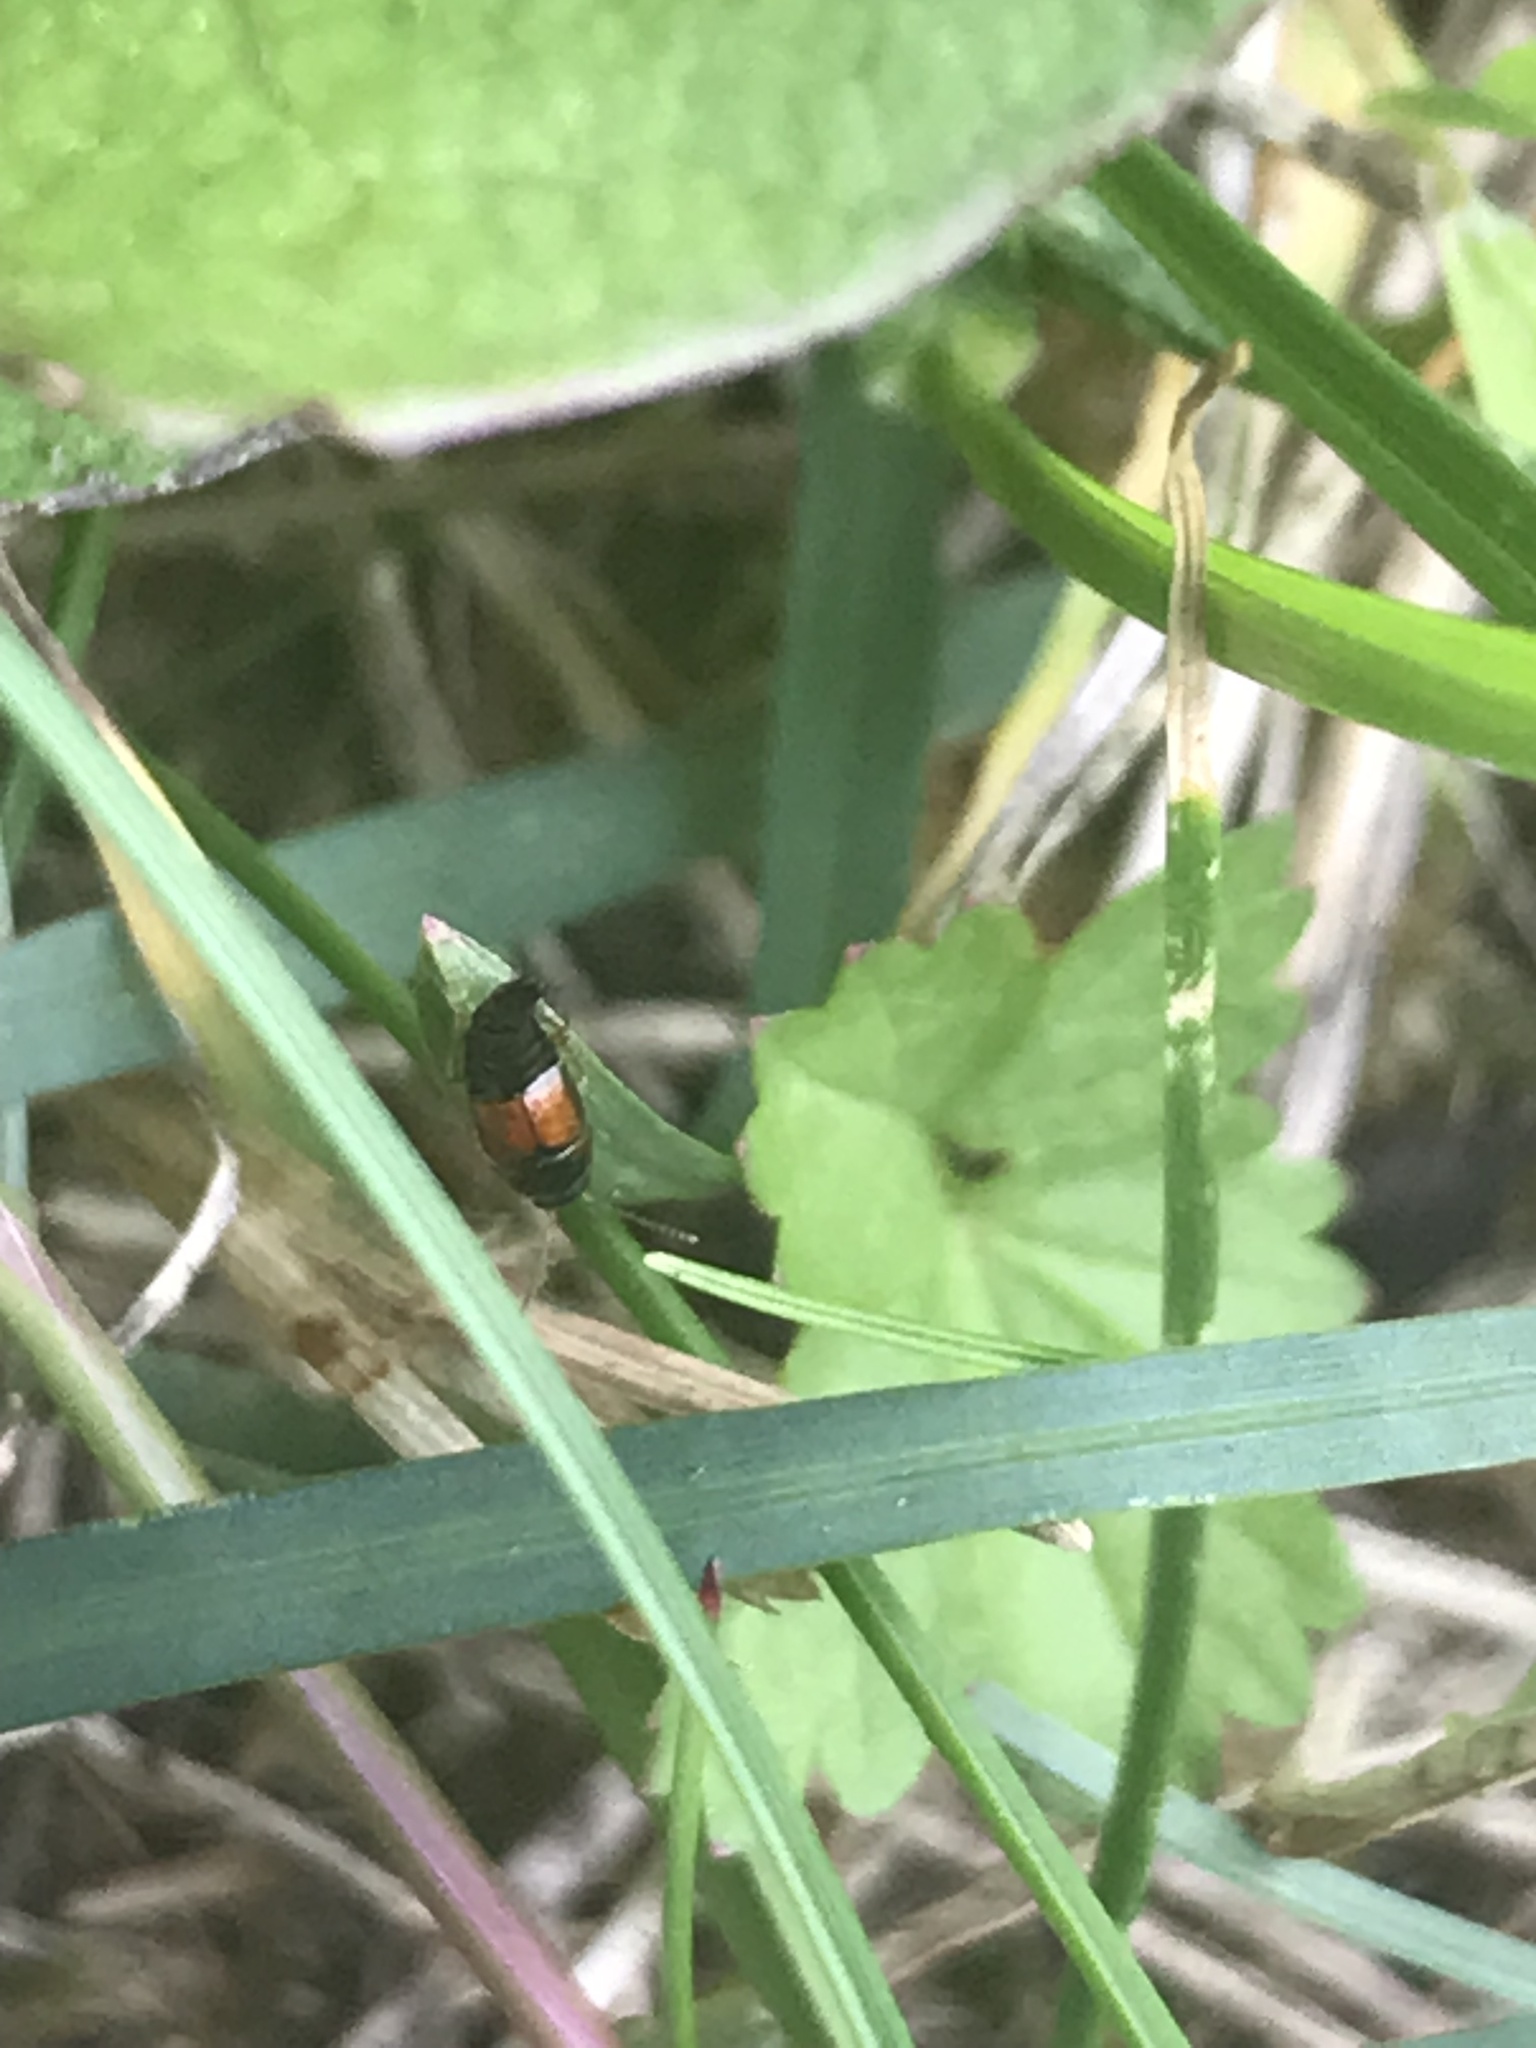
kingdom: Animalia
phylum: Arthropoda
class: Insecta
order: Coleoptera
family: Staphylinidae
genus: Tachyporus
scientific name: Tachyporus hypnorum
